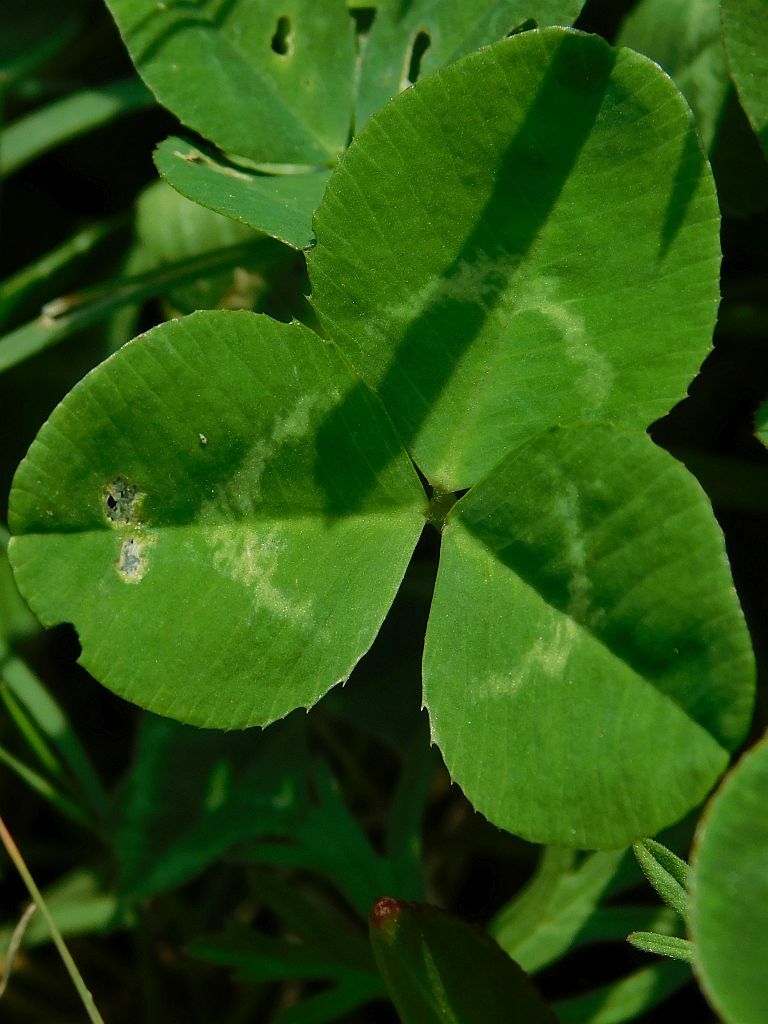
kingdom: Plantae
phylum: Tracheophyta
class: Magnoliopsida
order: Fabales
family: Fabaceae
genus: Trifolium
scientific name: Trifolium repens
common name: White clover
